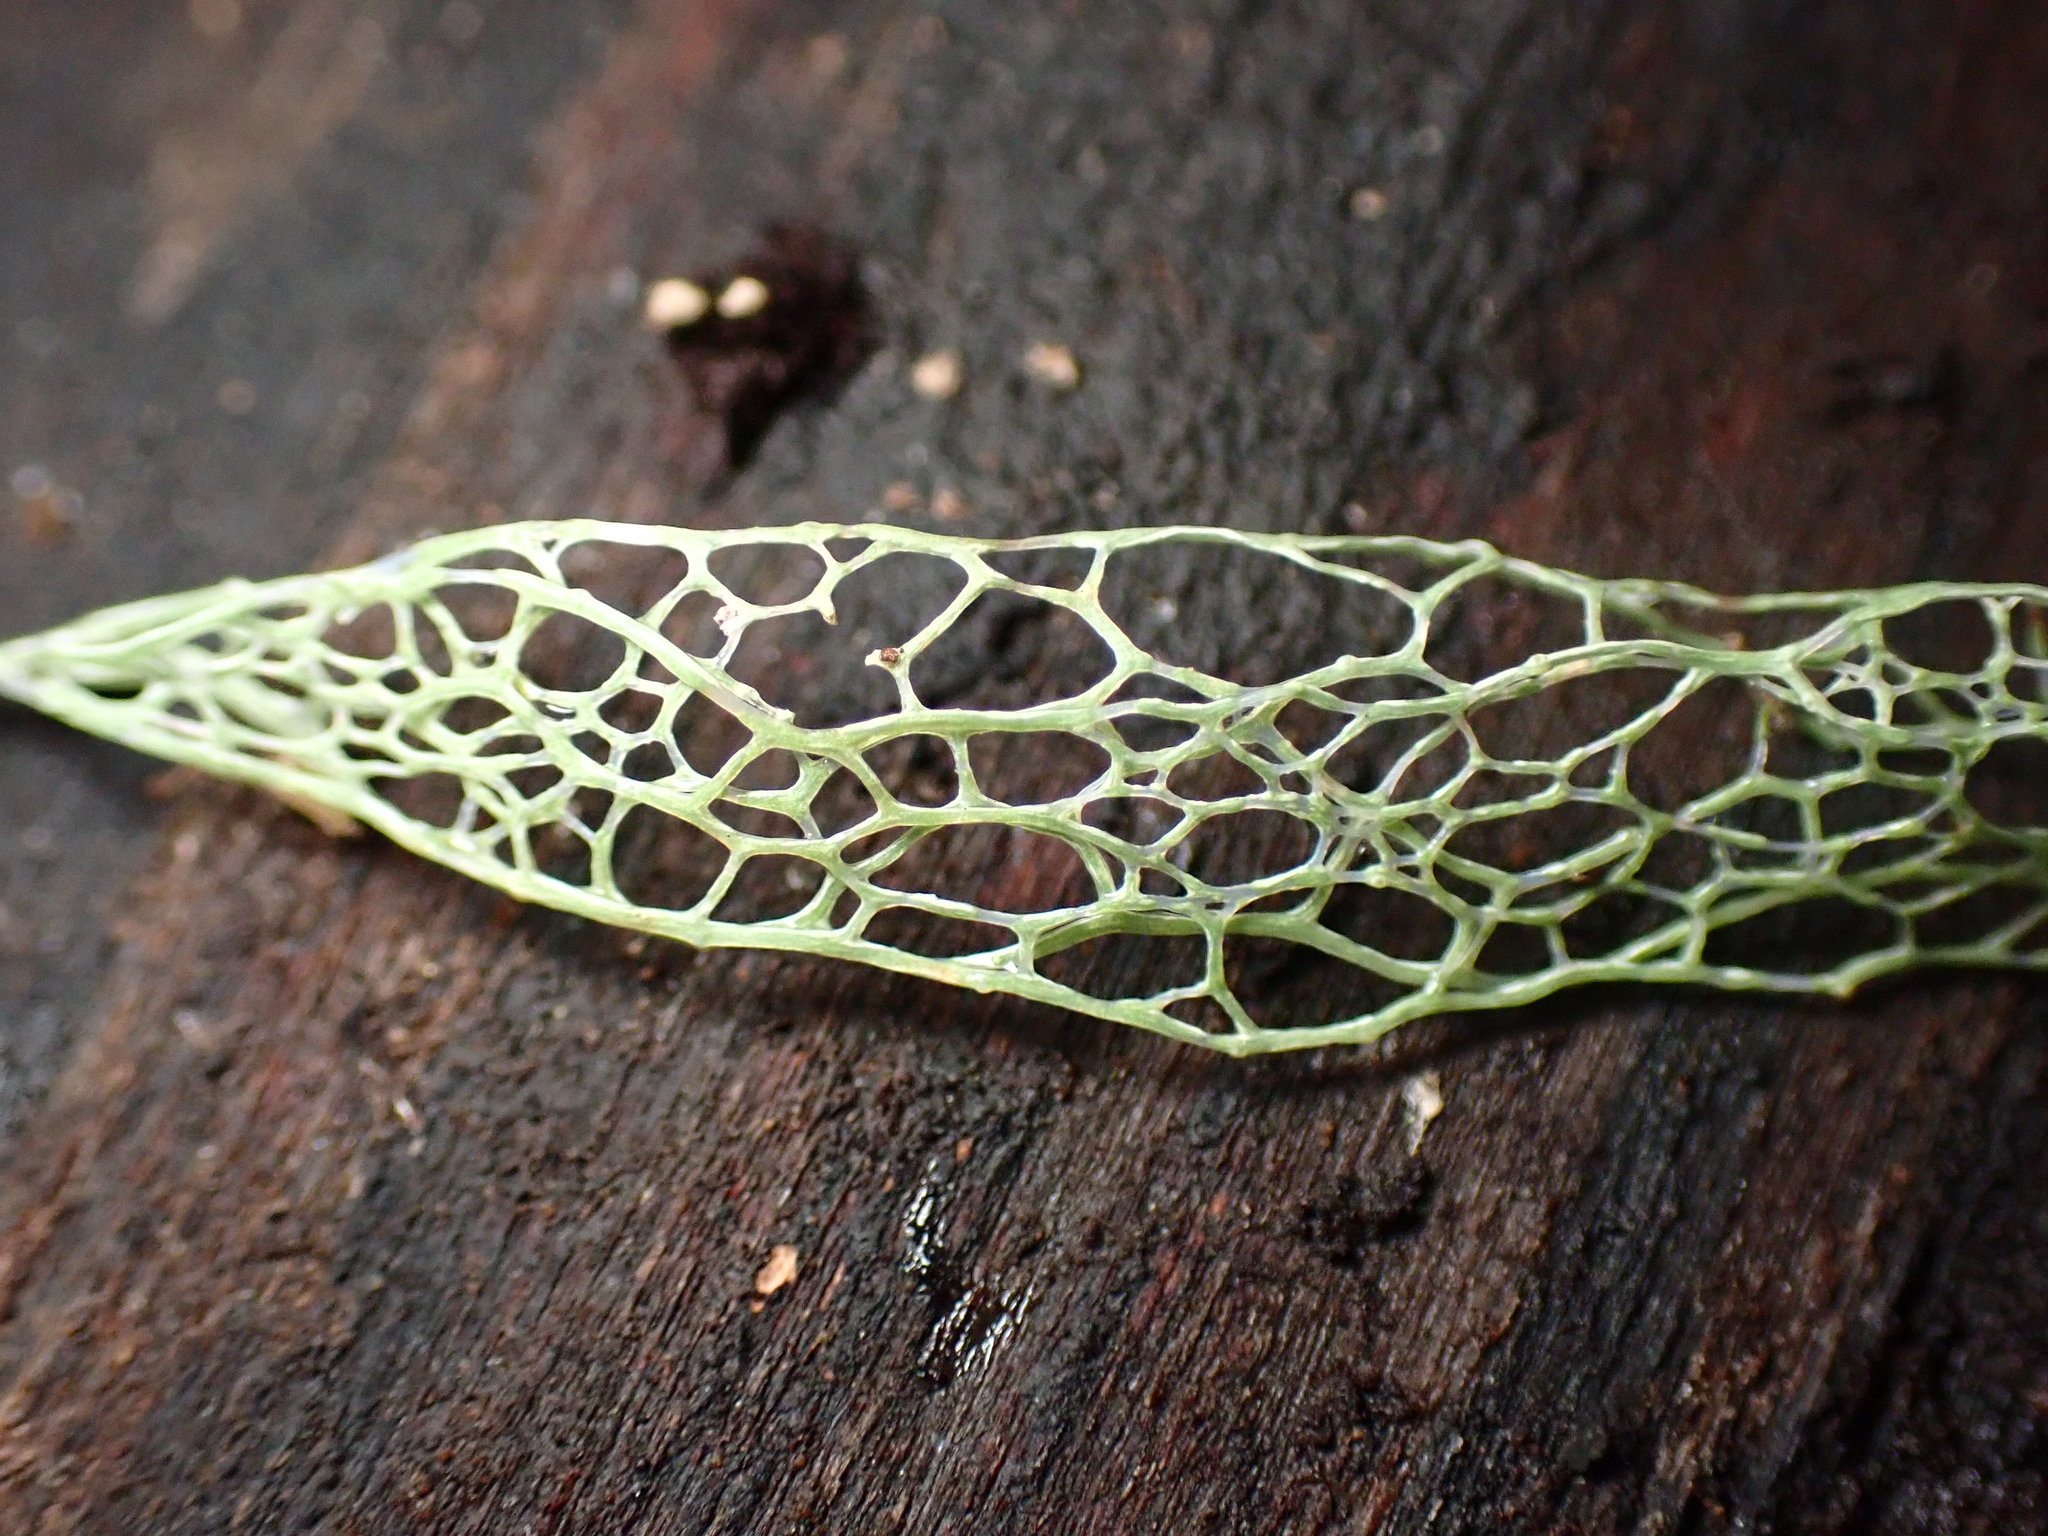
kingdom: Fungi
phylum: Ascomycota
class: Lecanoromycetes
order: Lecanorales
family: Ramalinaceae
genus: Ramalina
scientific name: Ramalina menziesii
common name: Lace lichen
